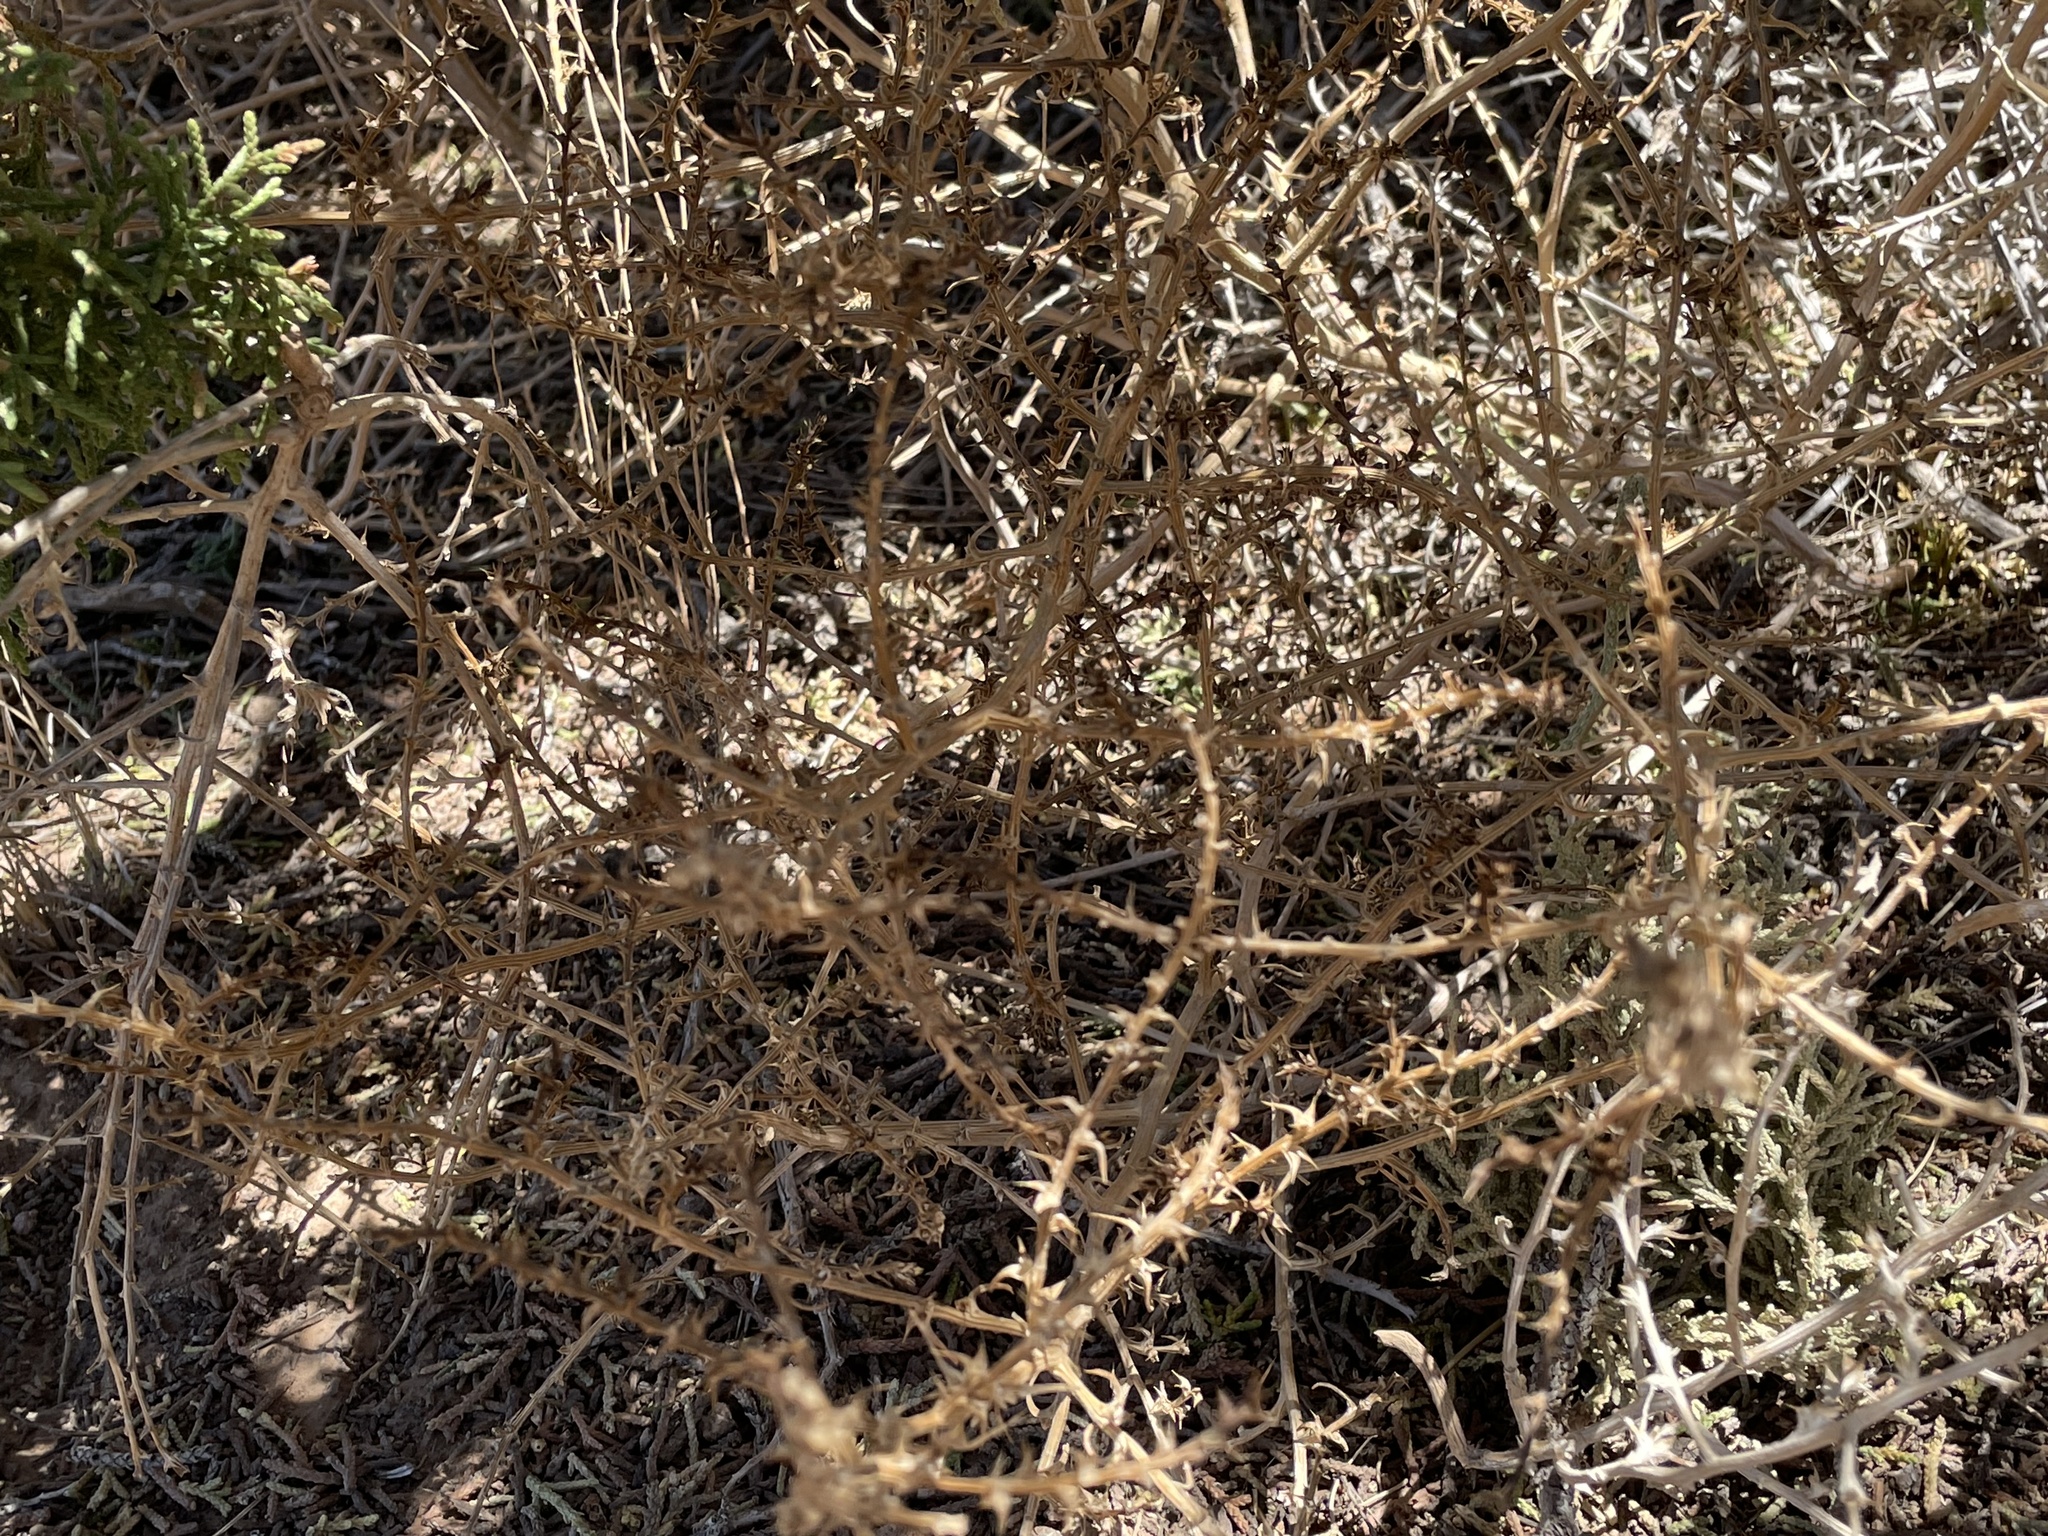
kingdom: Plantae
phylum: Tracheophyta
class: Magnoliopsida
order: Caryophyllales
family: Amaranthaceae
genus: Salsola
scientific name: Salsola tragus
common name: Prickly russian thistle
